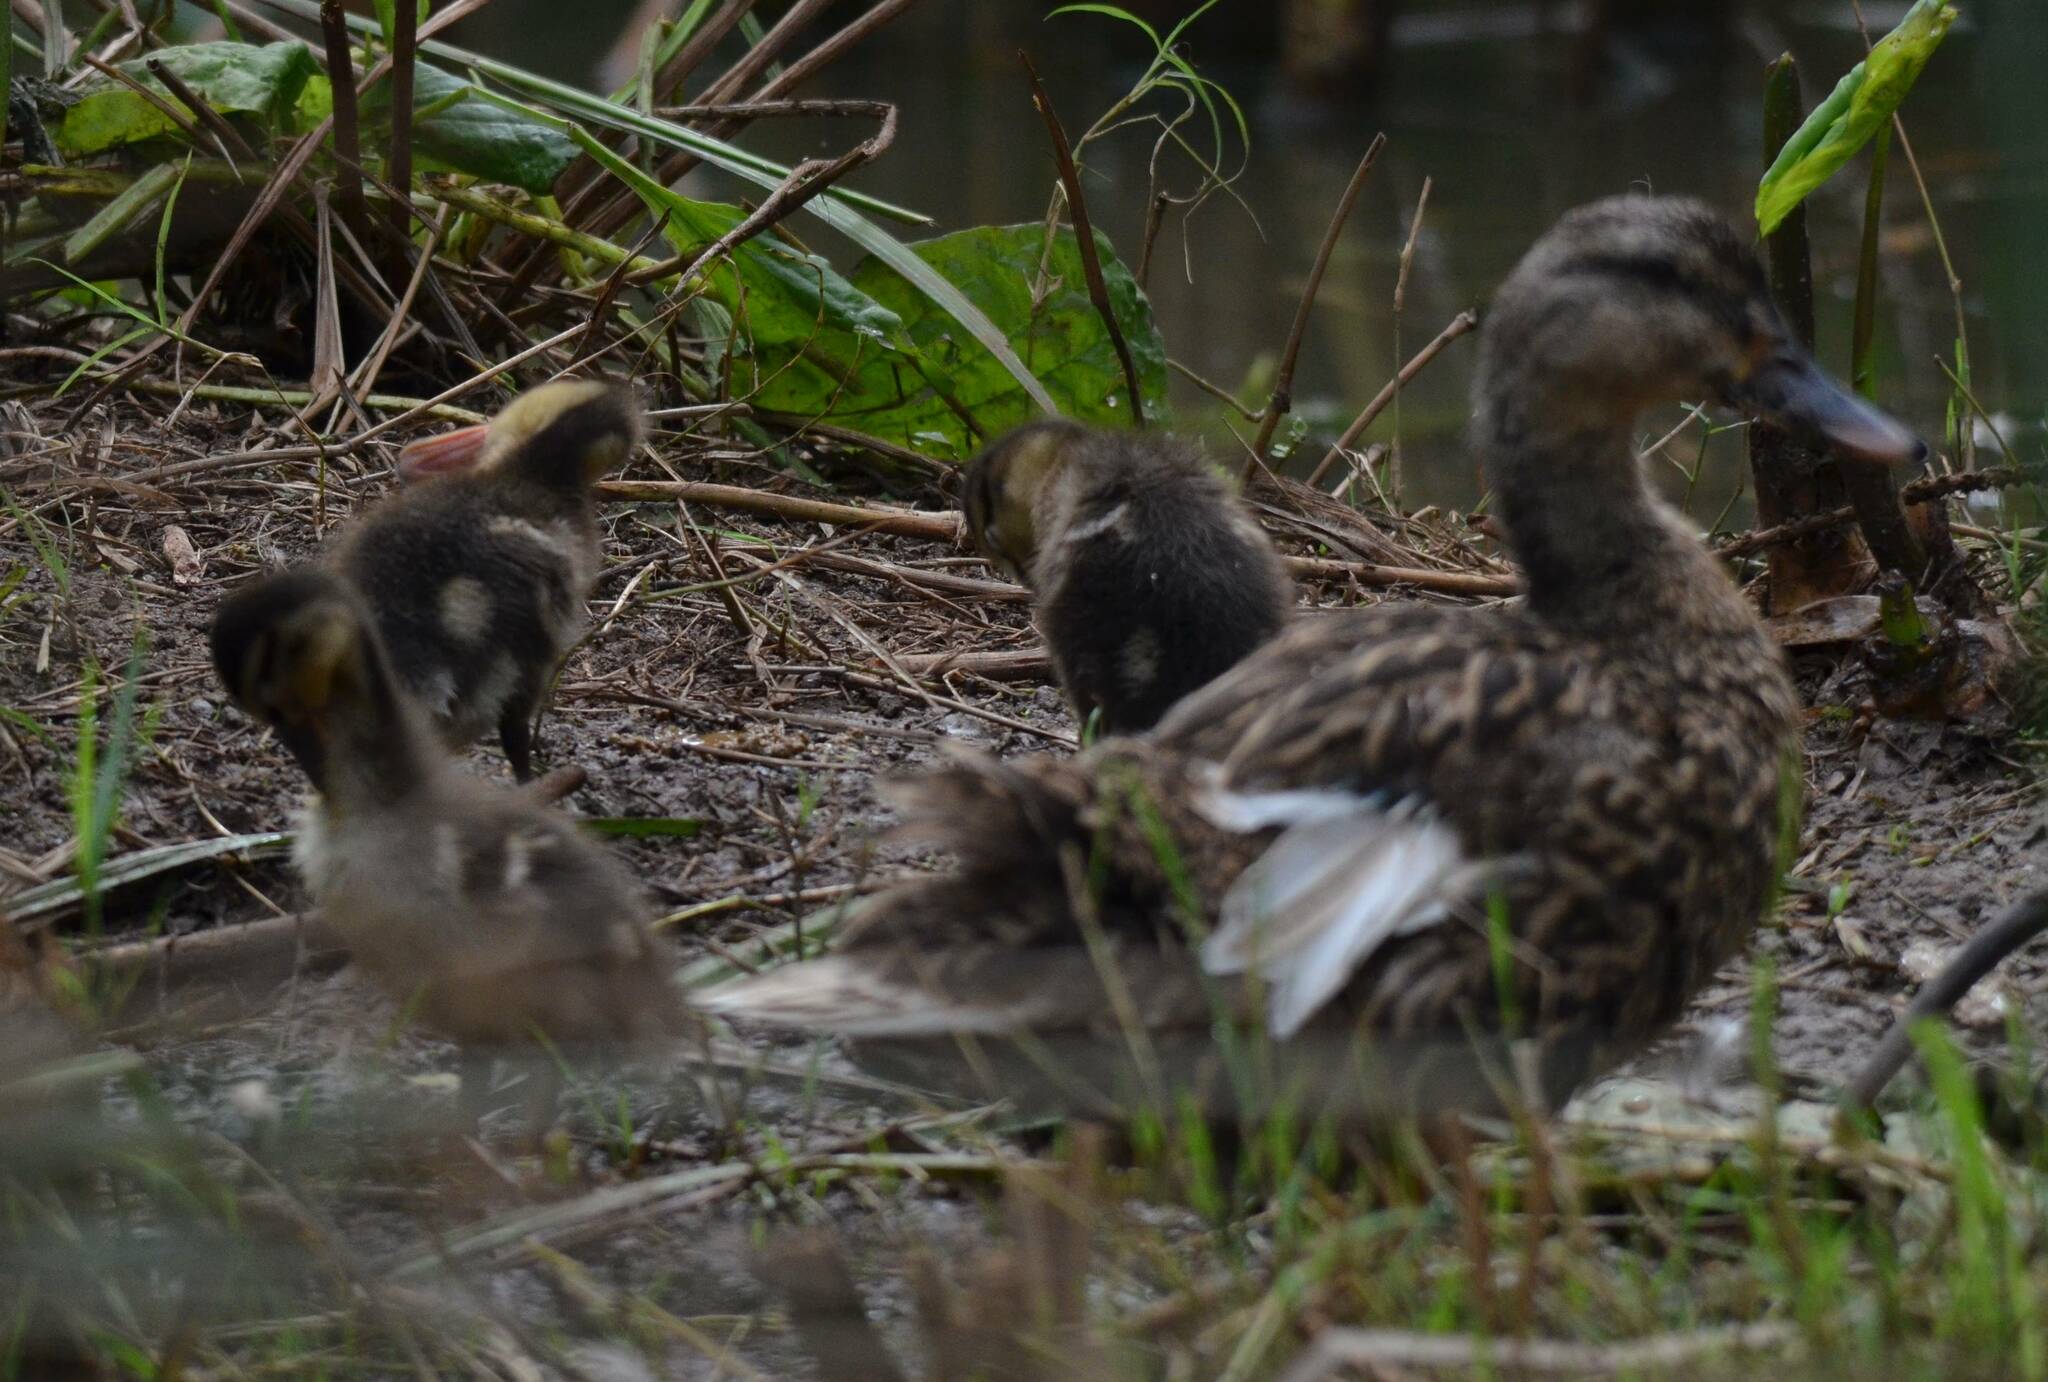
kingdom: Animalia
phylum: Chordata
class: Aves
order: Anseriformes
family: Anatidae
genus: Anas
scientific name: Anas platyrhynchos
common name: Mallard
